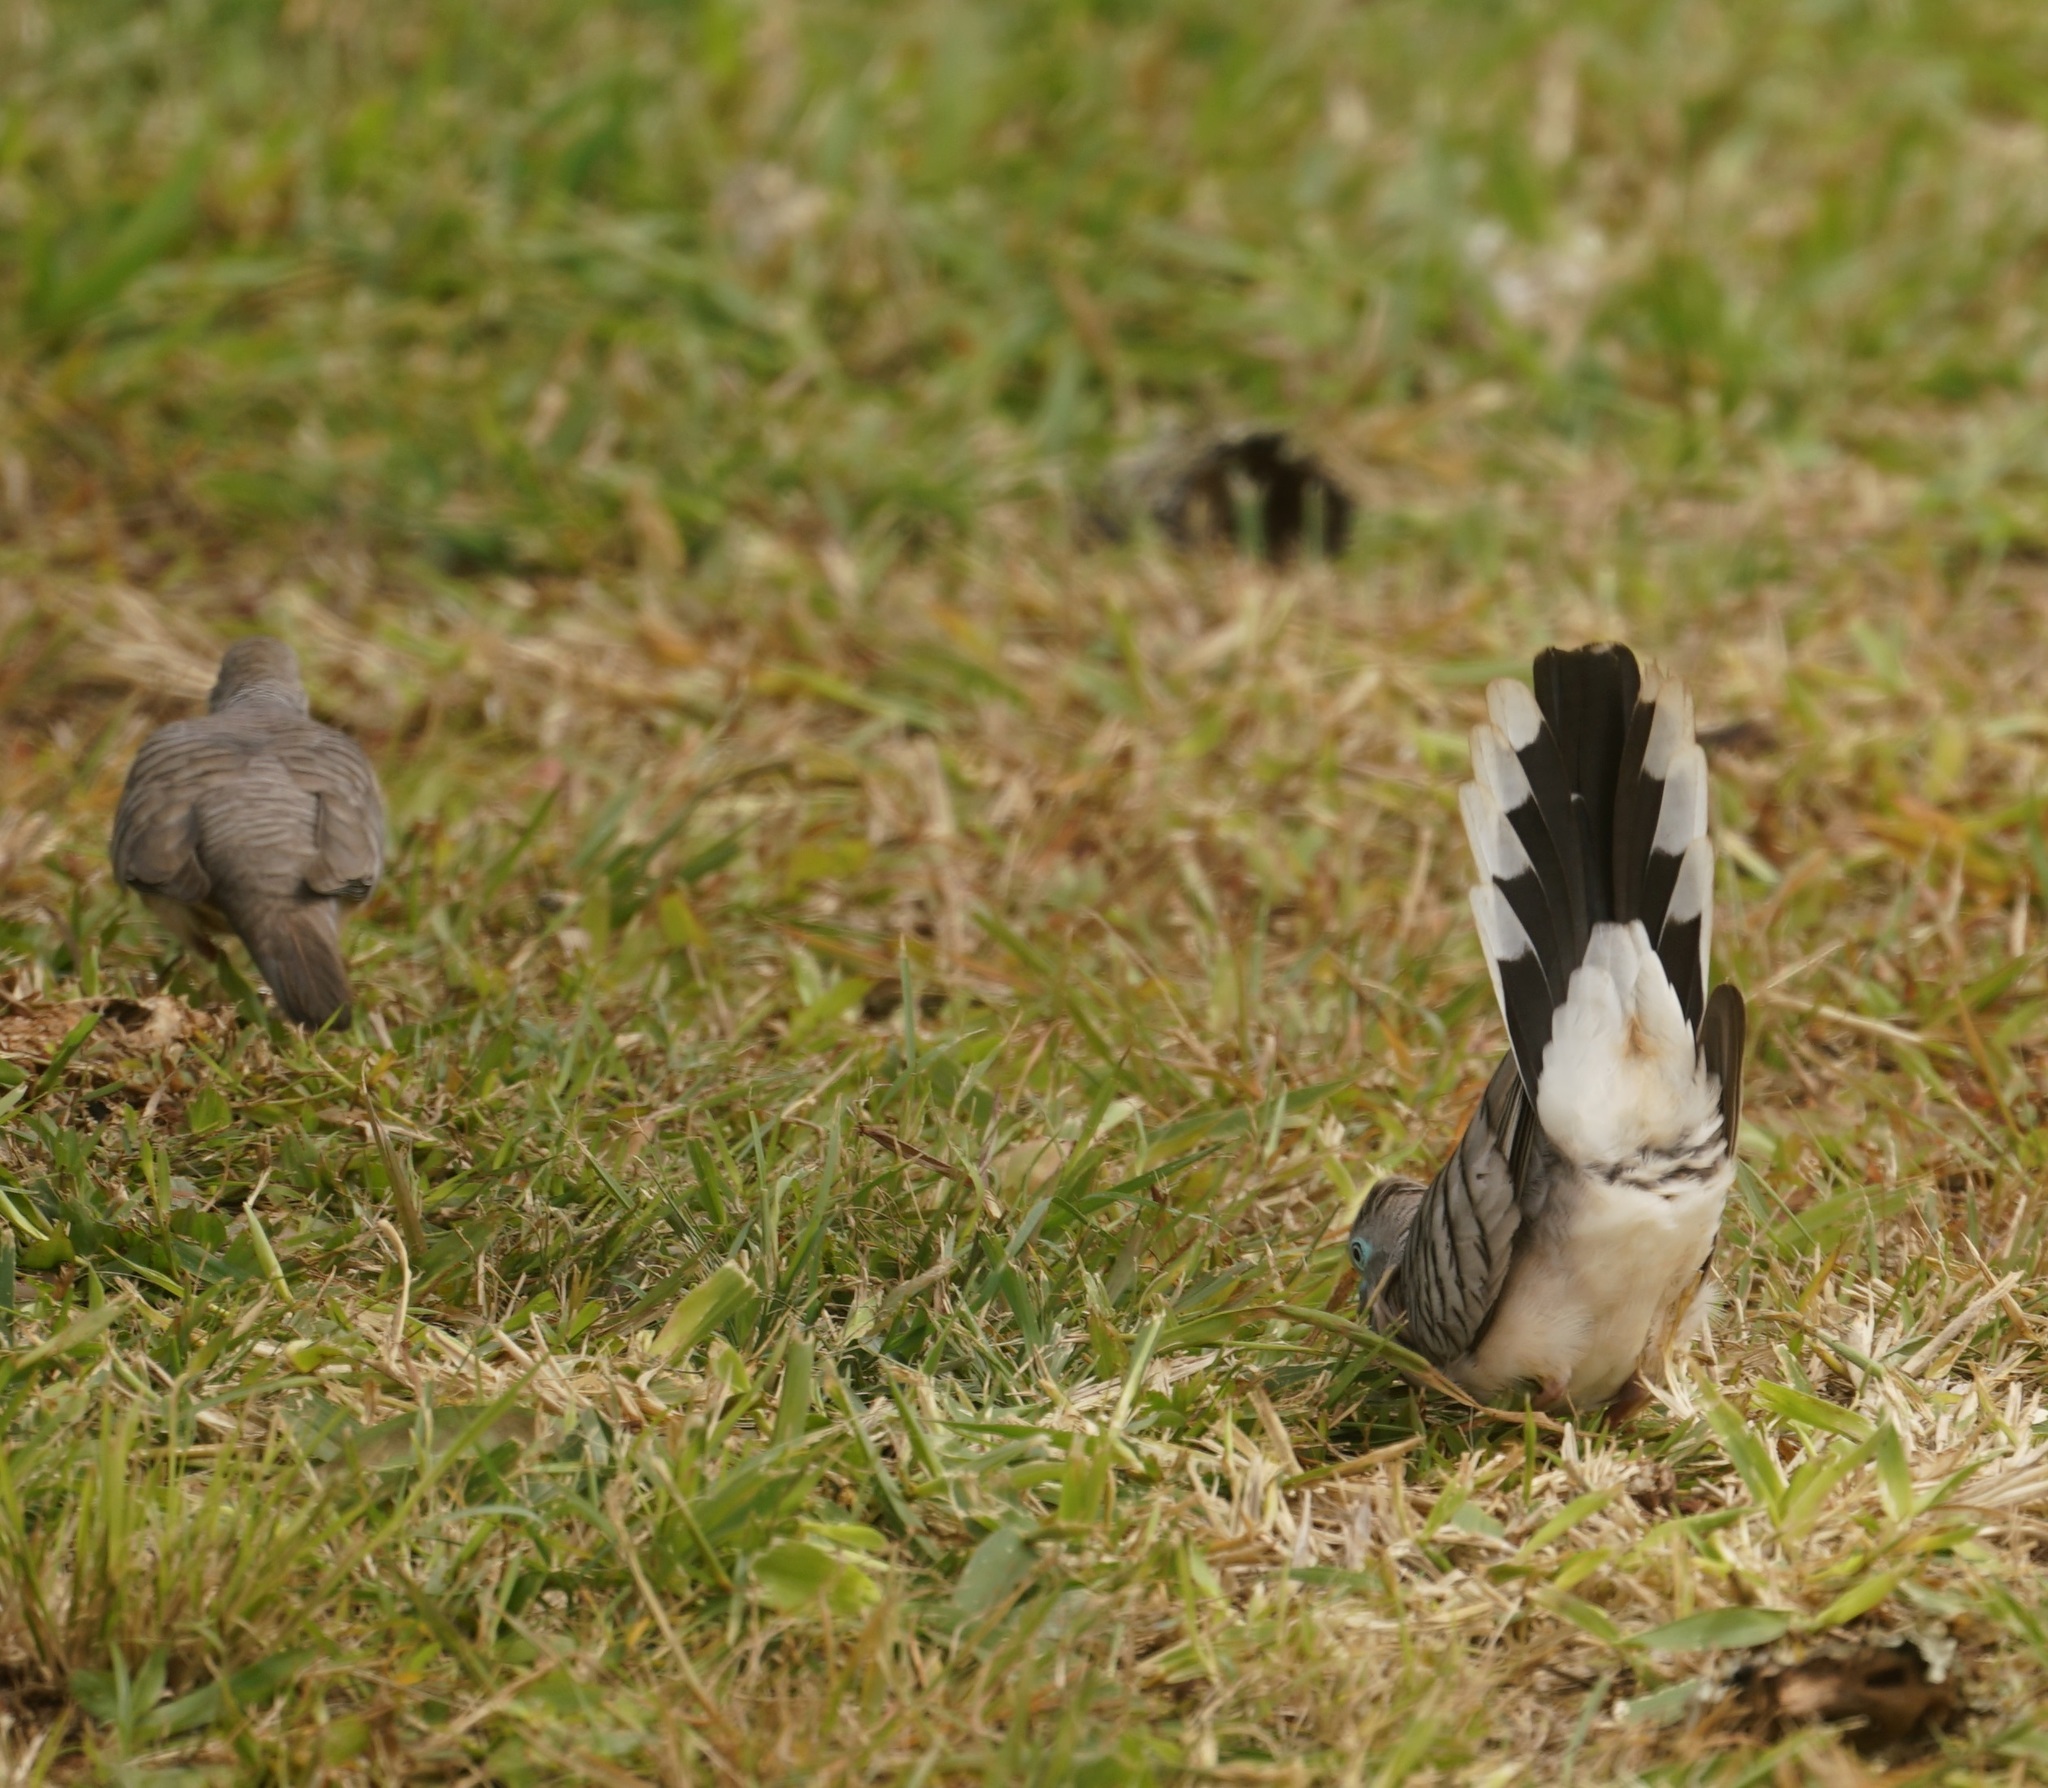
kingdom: Animalia
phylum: Chordata
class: Aves
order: Columbiformes
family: Columbidae
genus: Geopelia
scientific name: Geopelia placida
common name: Peaceful dove
